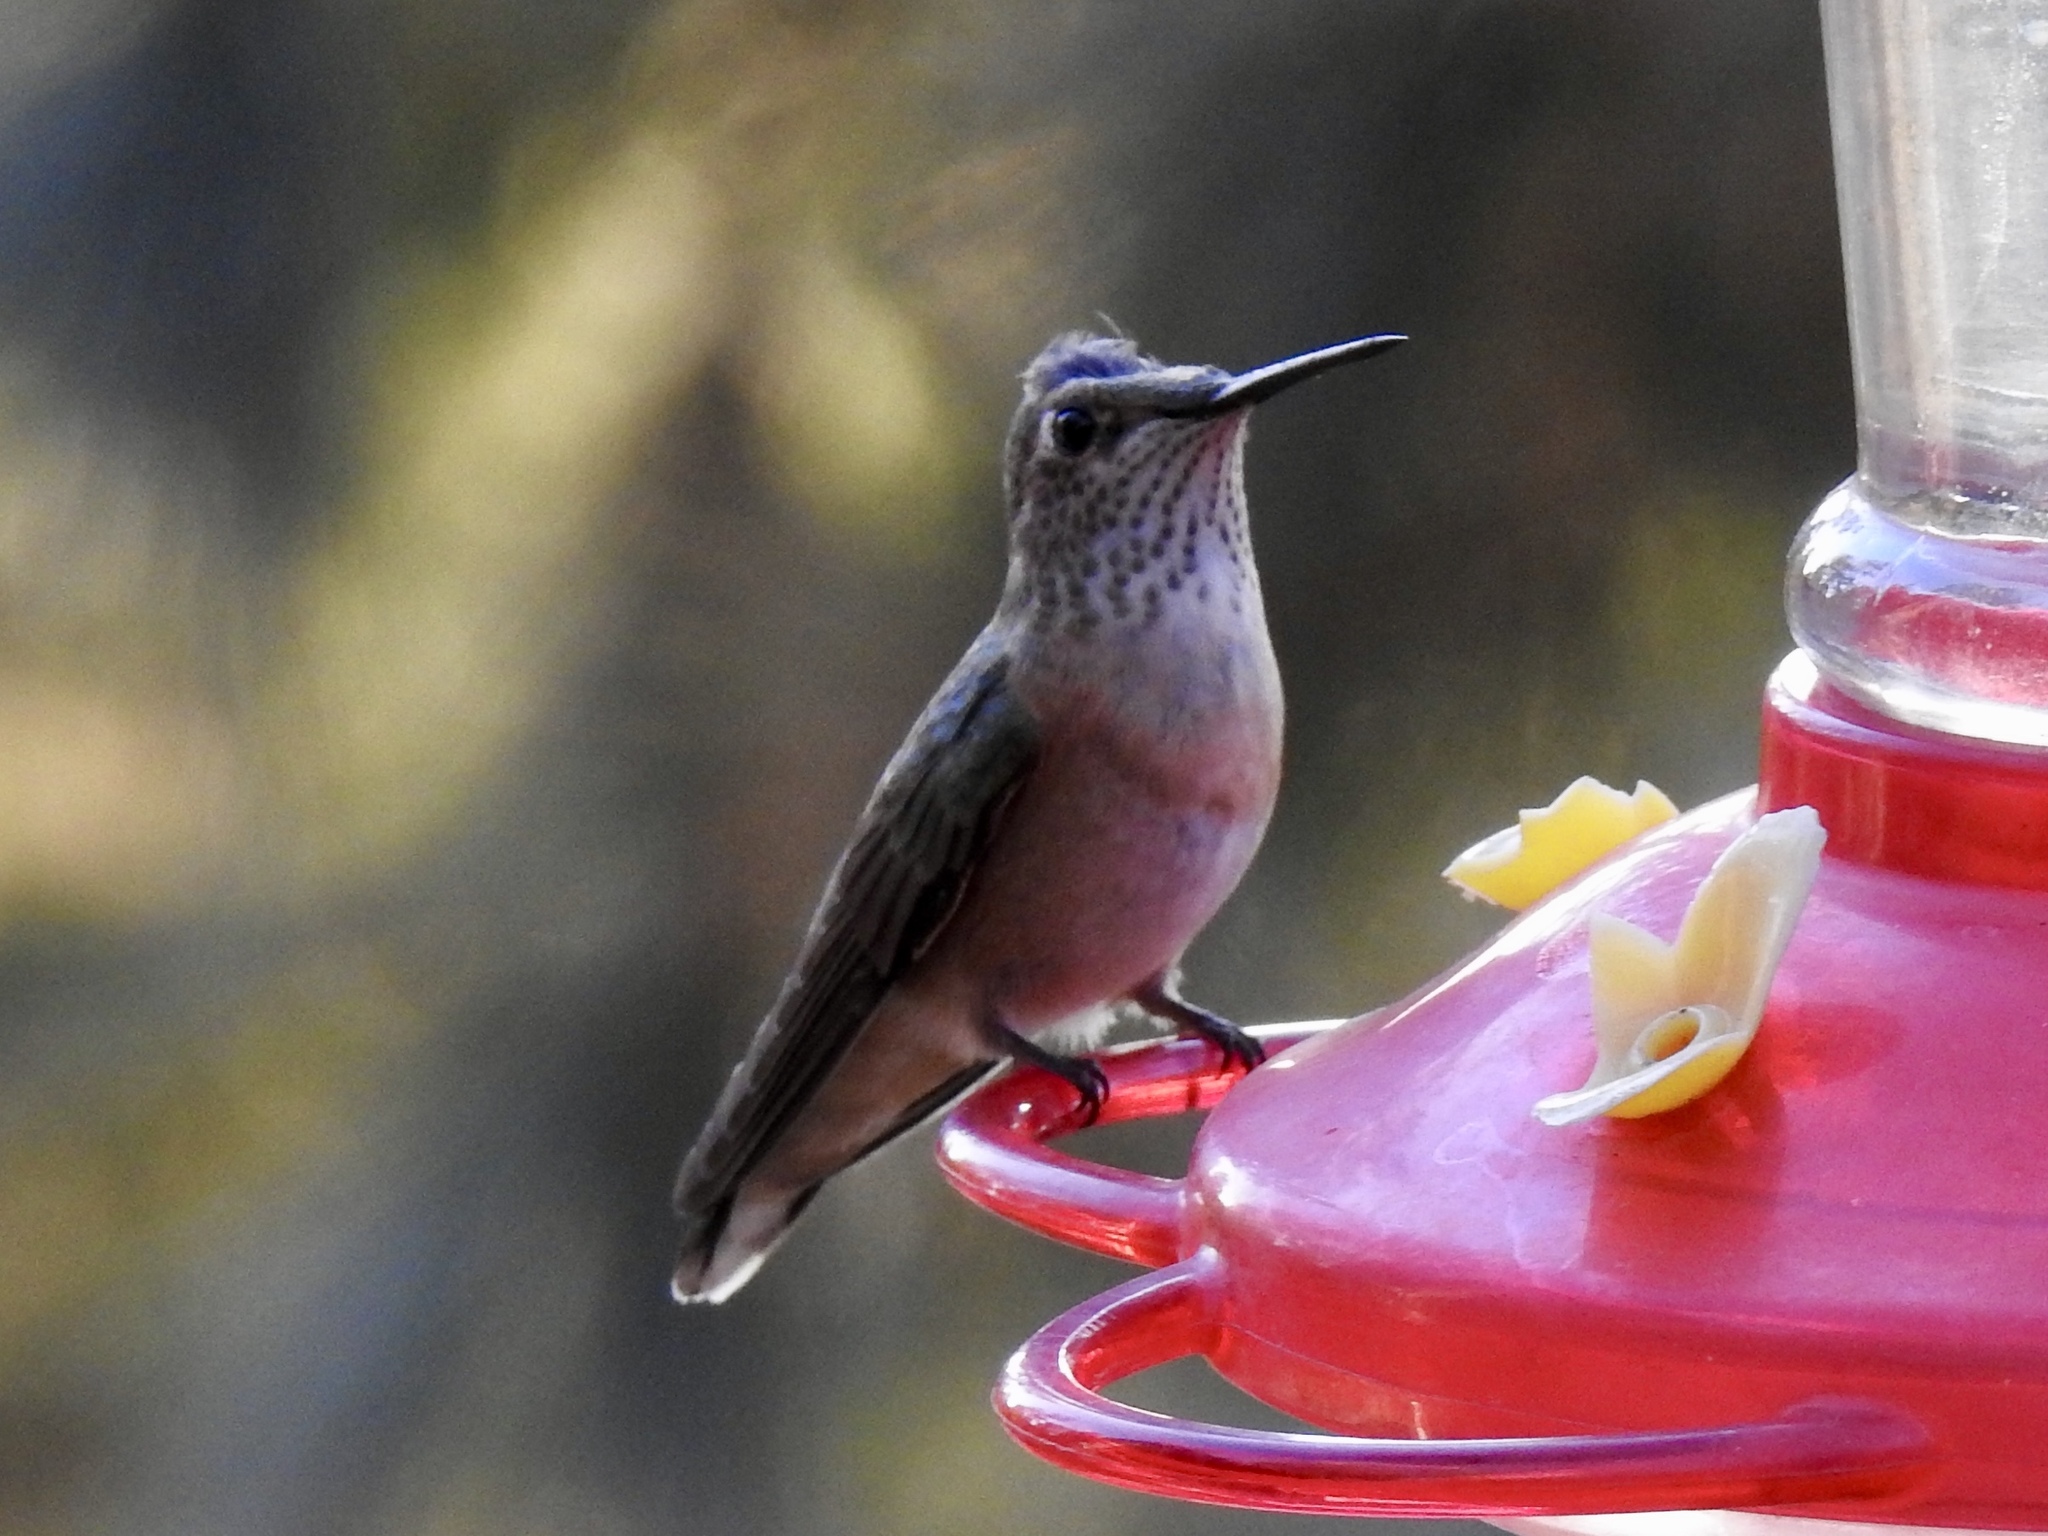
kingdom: Animalia
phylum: Chordata
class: Aves
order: Apodiformes
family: Trochilidae
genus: Selasphorus
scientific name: Selasphorus rufus
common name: Rufous hummingbird
